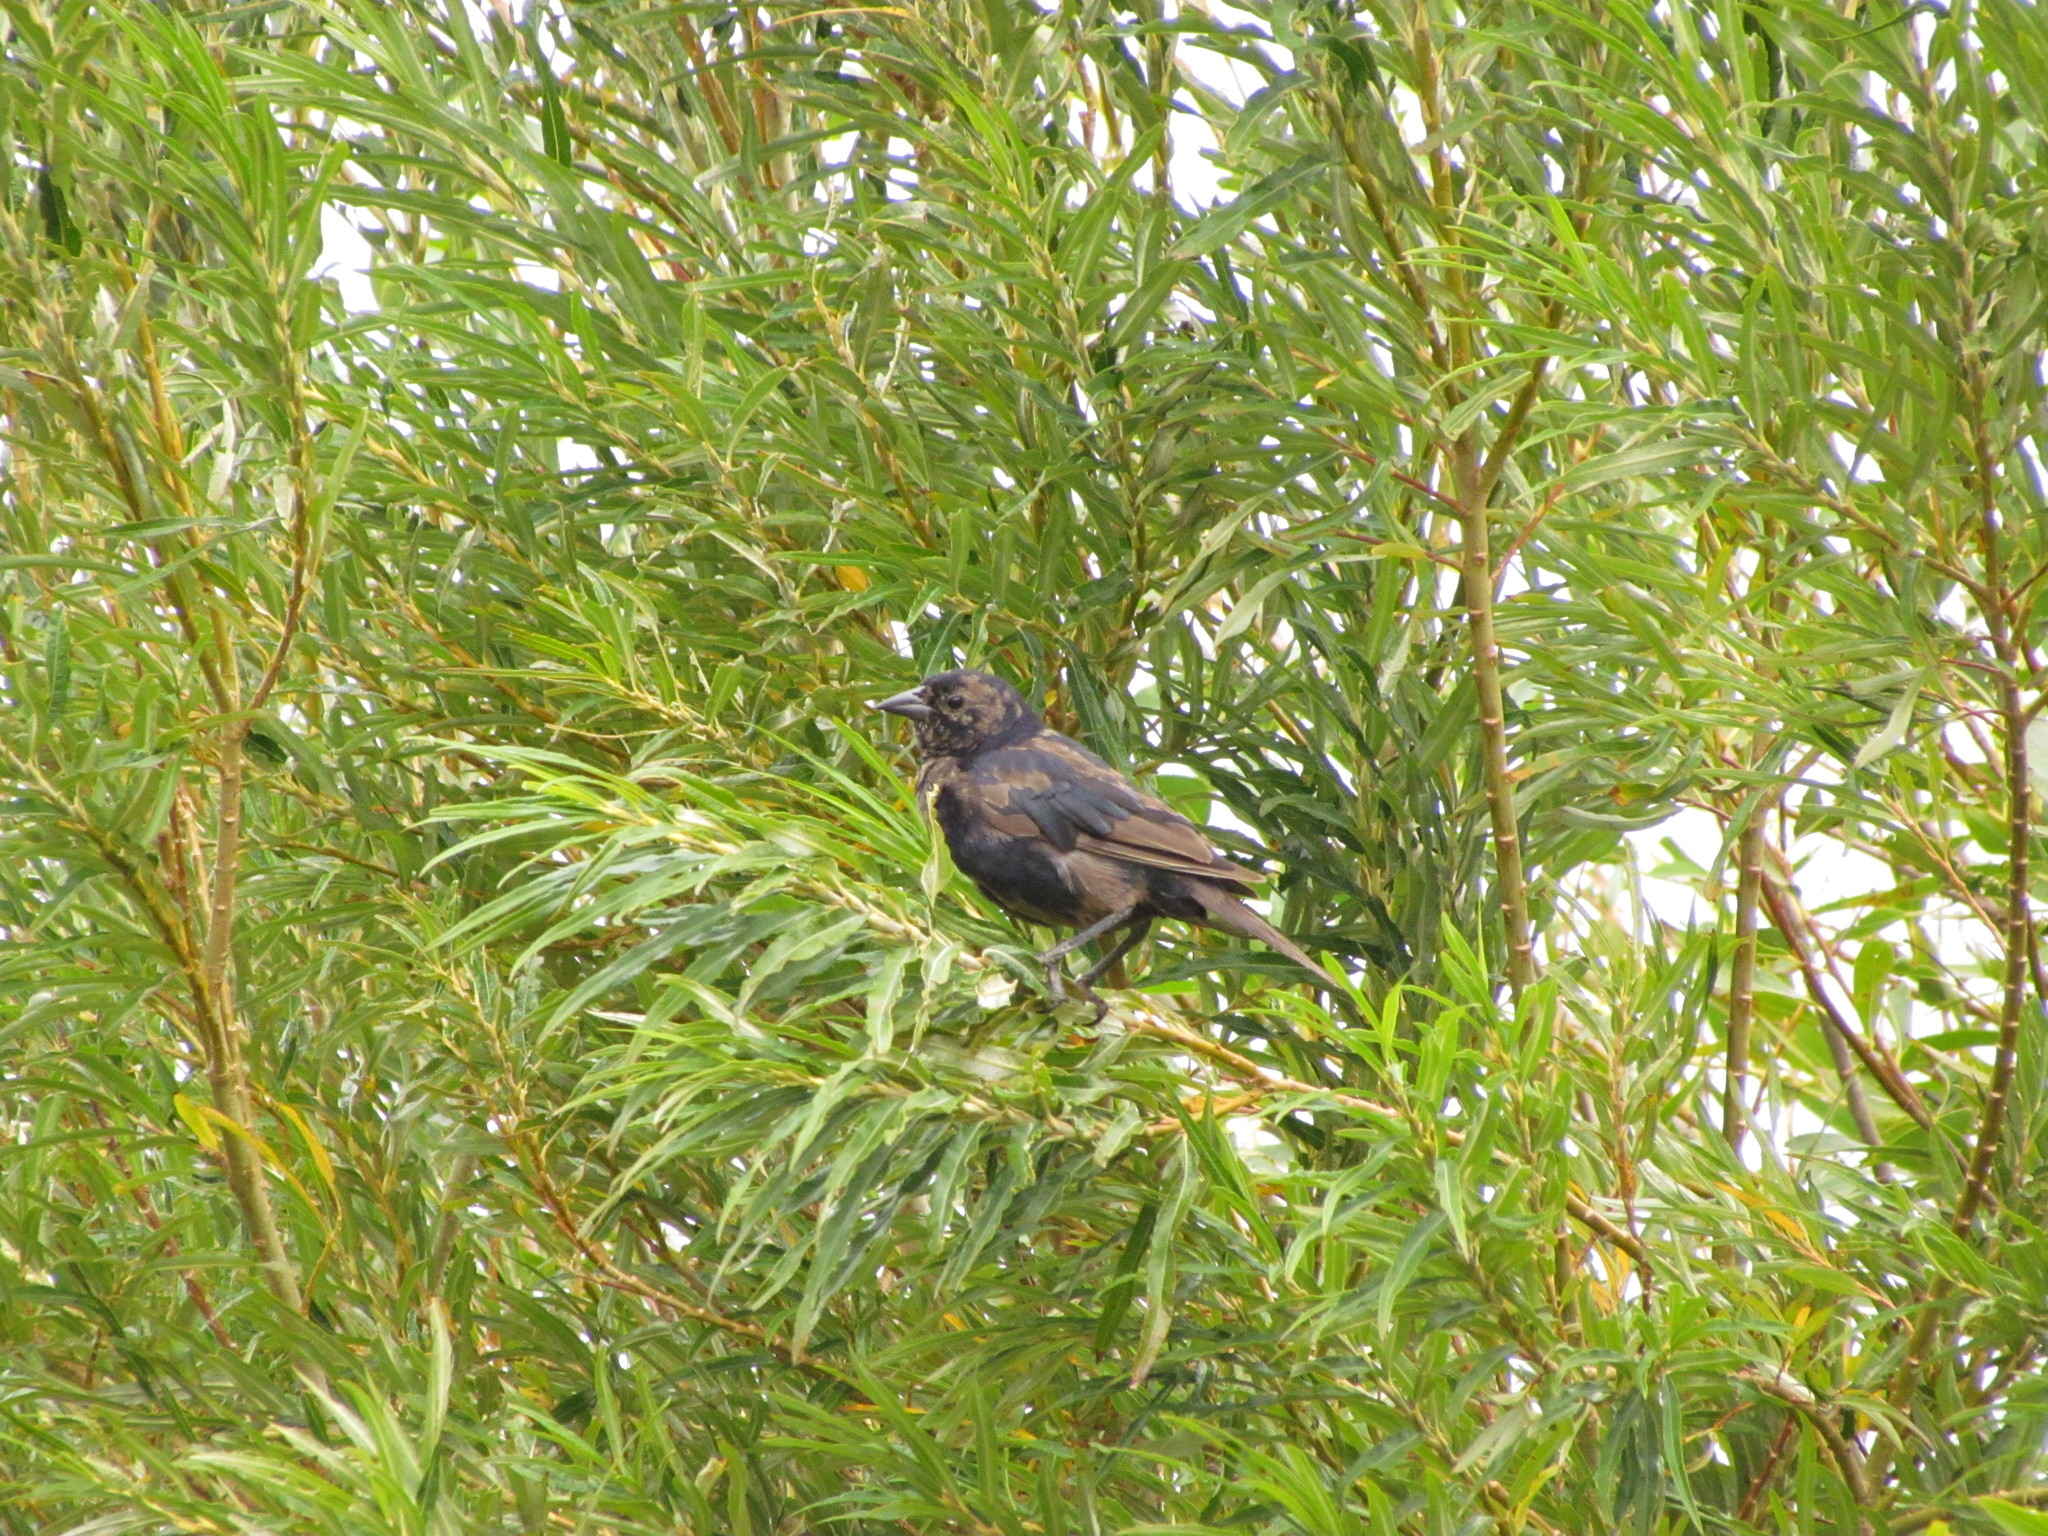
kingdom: Animalia
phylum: Chordata
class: Aves
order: Passeriformes
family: Icteridae
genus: Molothrus
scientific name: Molothrus bonariensis
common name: Shiny cowbird
